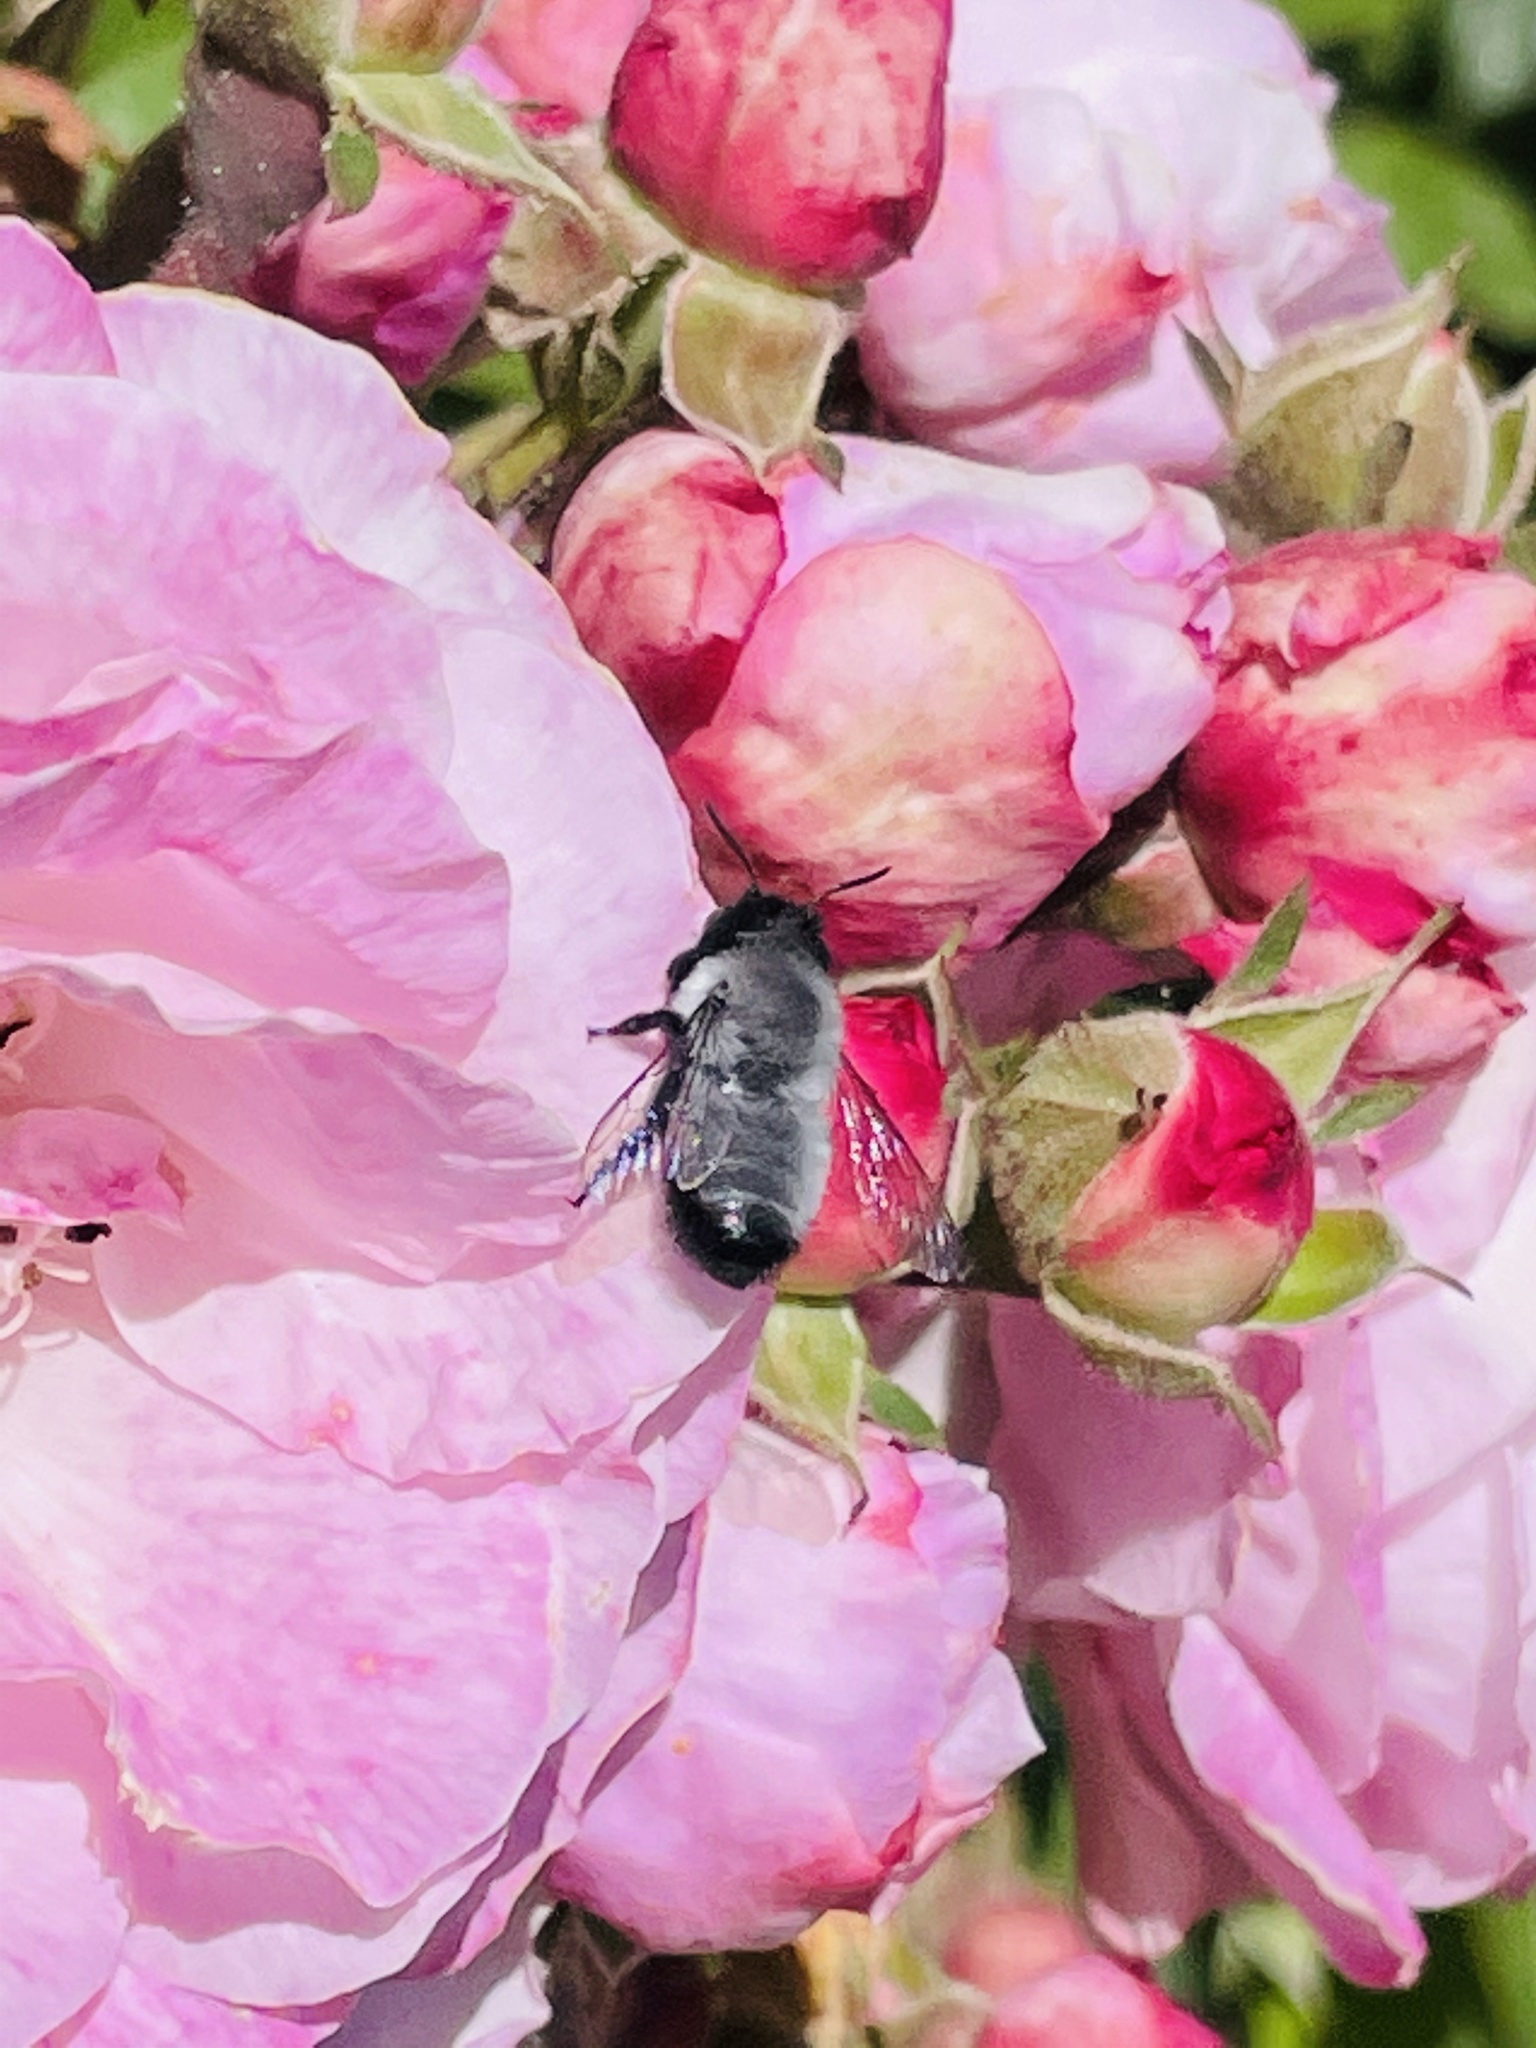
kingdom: Animalia
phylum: Arthropoda
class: Insecta
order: Hymenoptera
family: Megachilidae
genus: Megachile
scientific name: Megachile saulcyi
